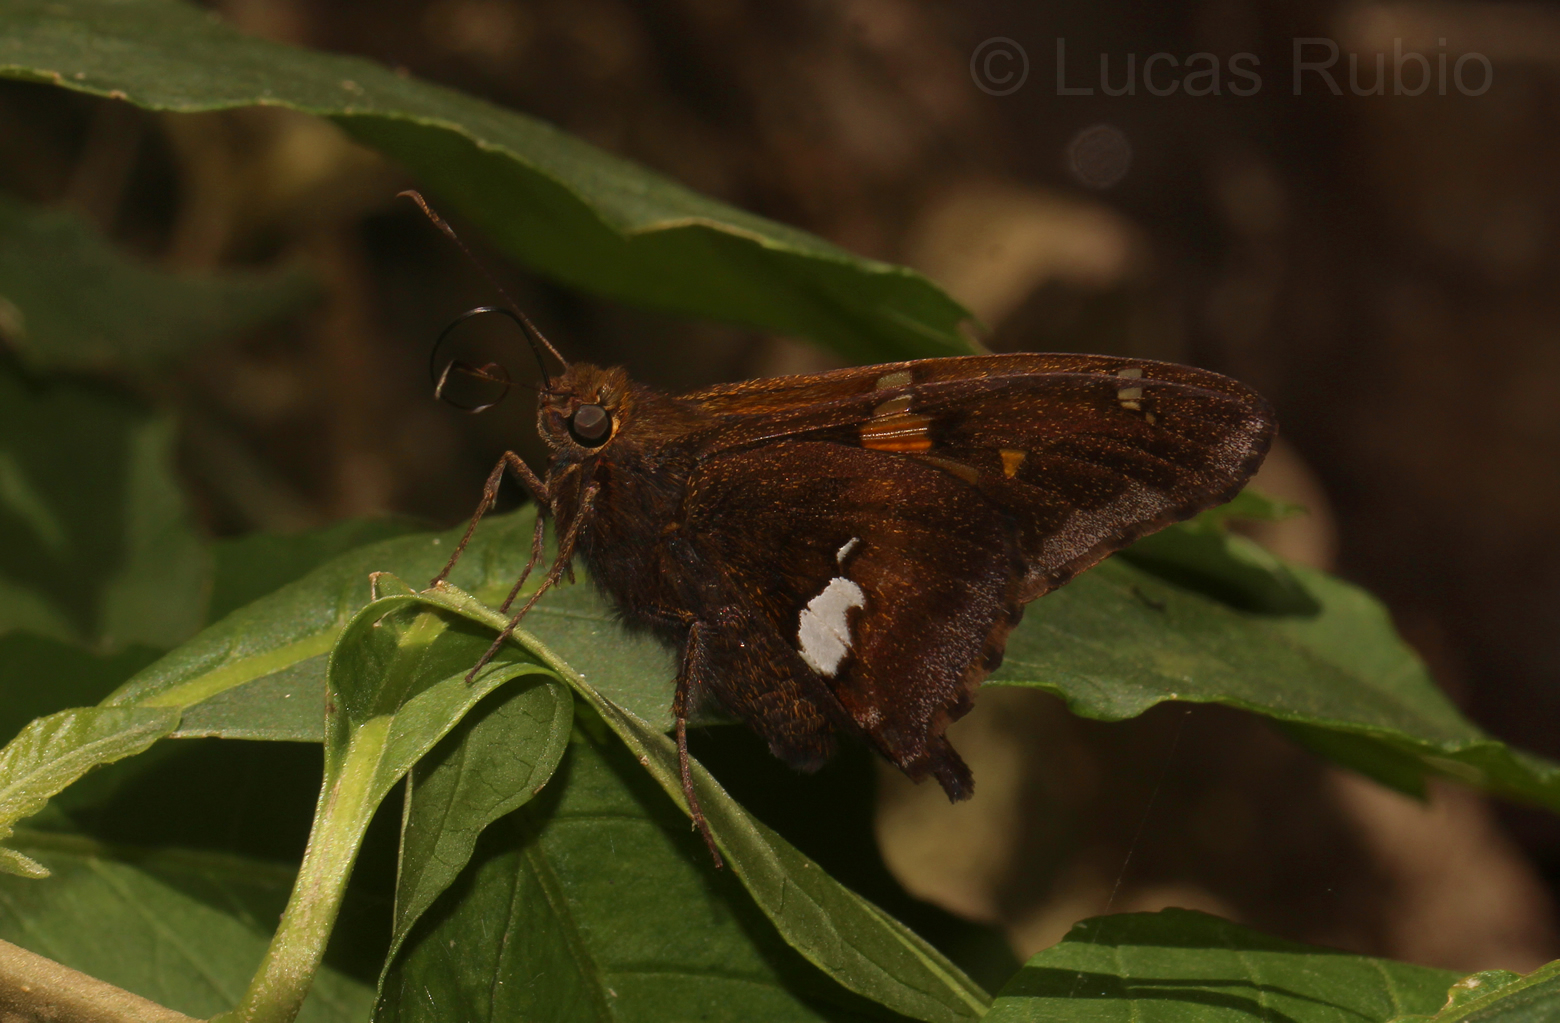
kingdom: Animalia
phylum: Arthropoda
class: Insecta
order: Lepidoptera
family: Hesperiidae
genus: Epargyreus
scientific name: Epargyreus socus
